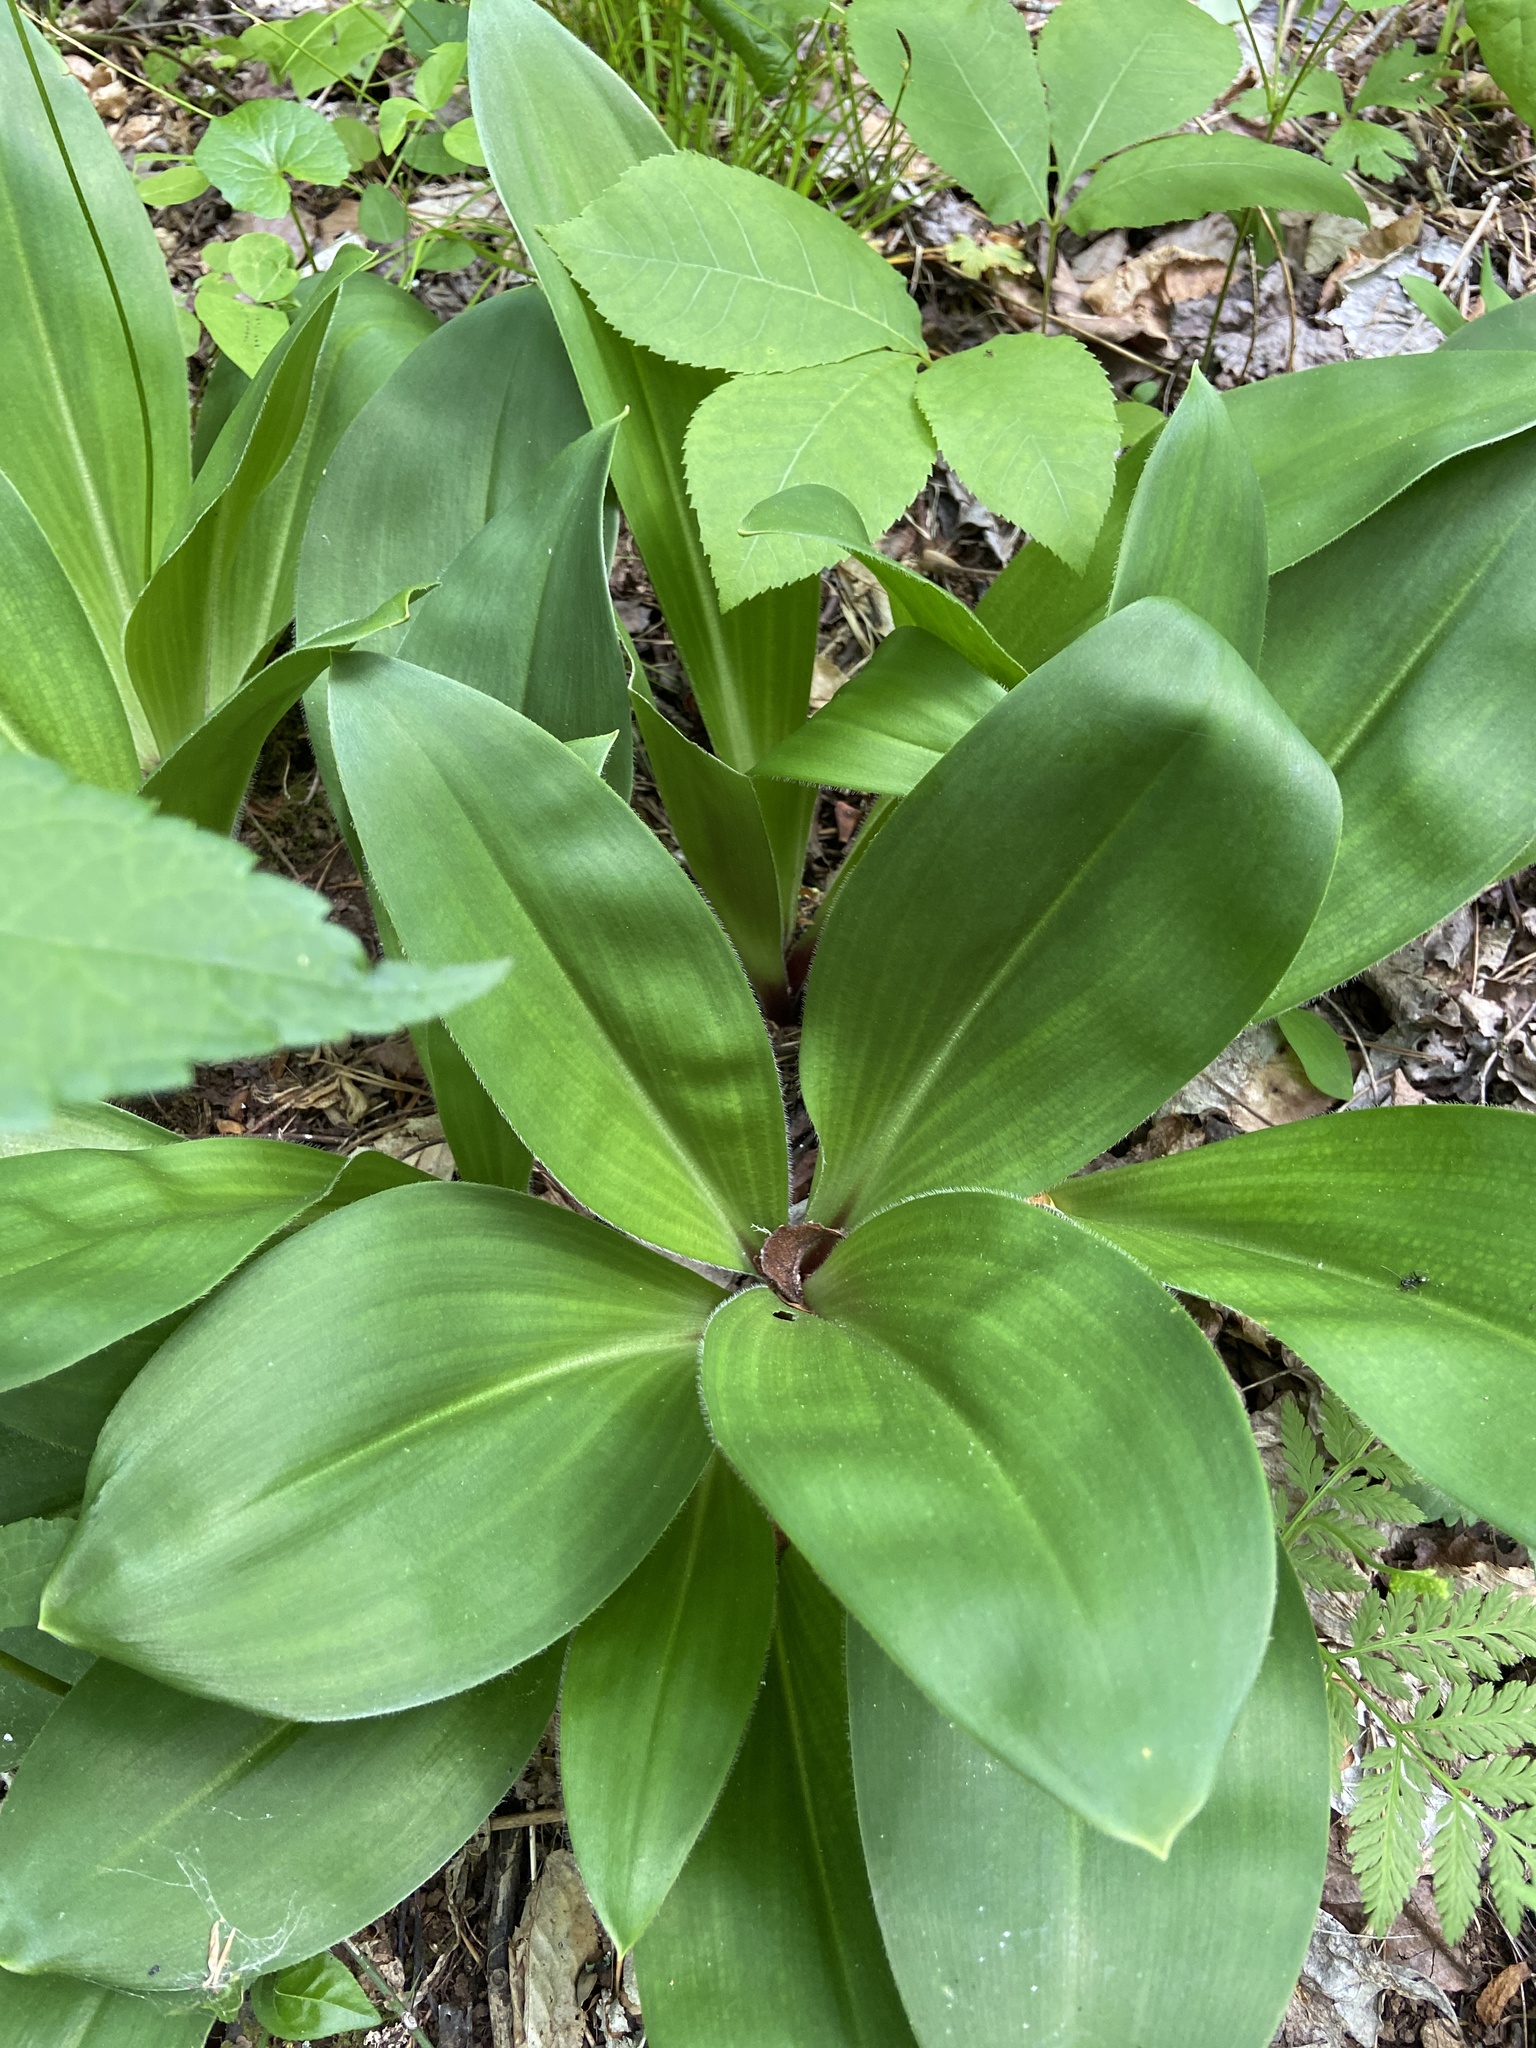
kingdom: Plantae
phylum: Tracheophyta
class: Liliopsida
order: Liliales
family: Liliaceae
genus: Clintonia
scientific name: Clintonia umbellulata
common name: Speckle wood-lily
